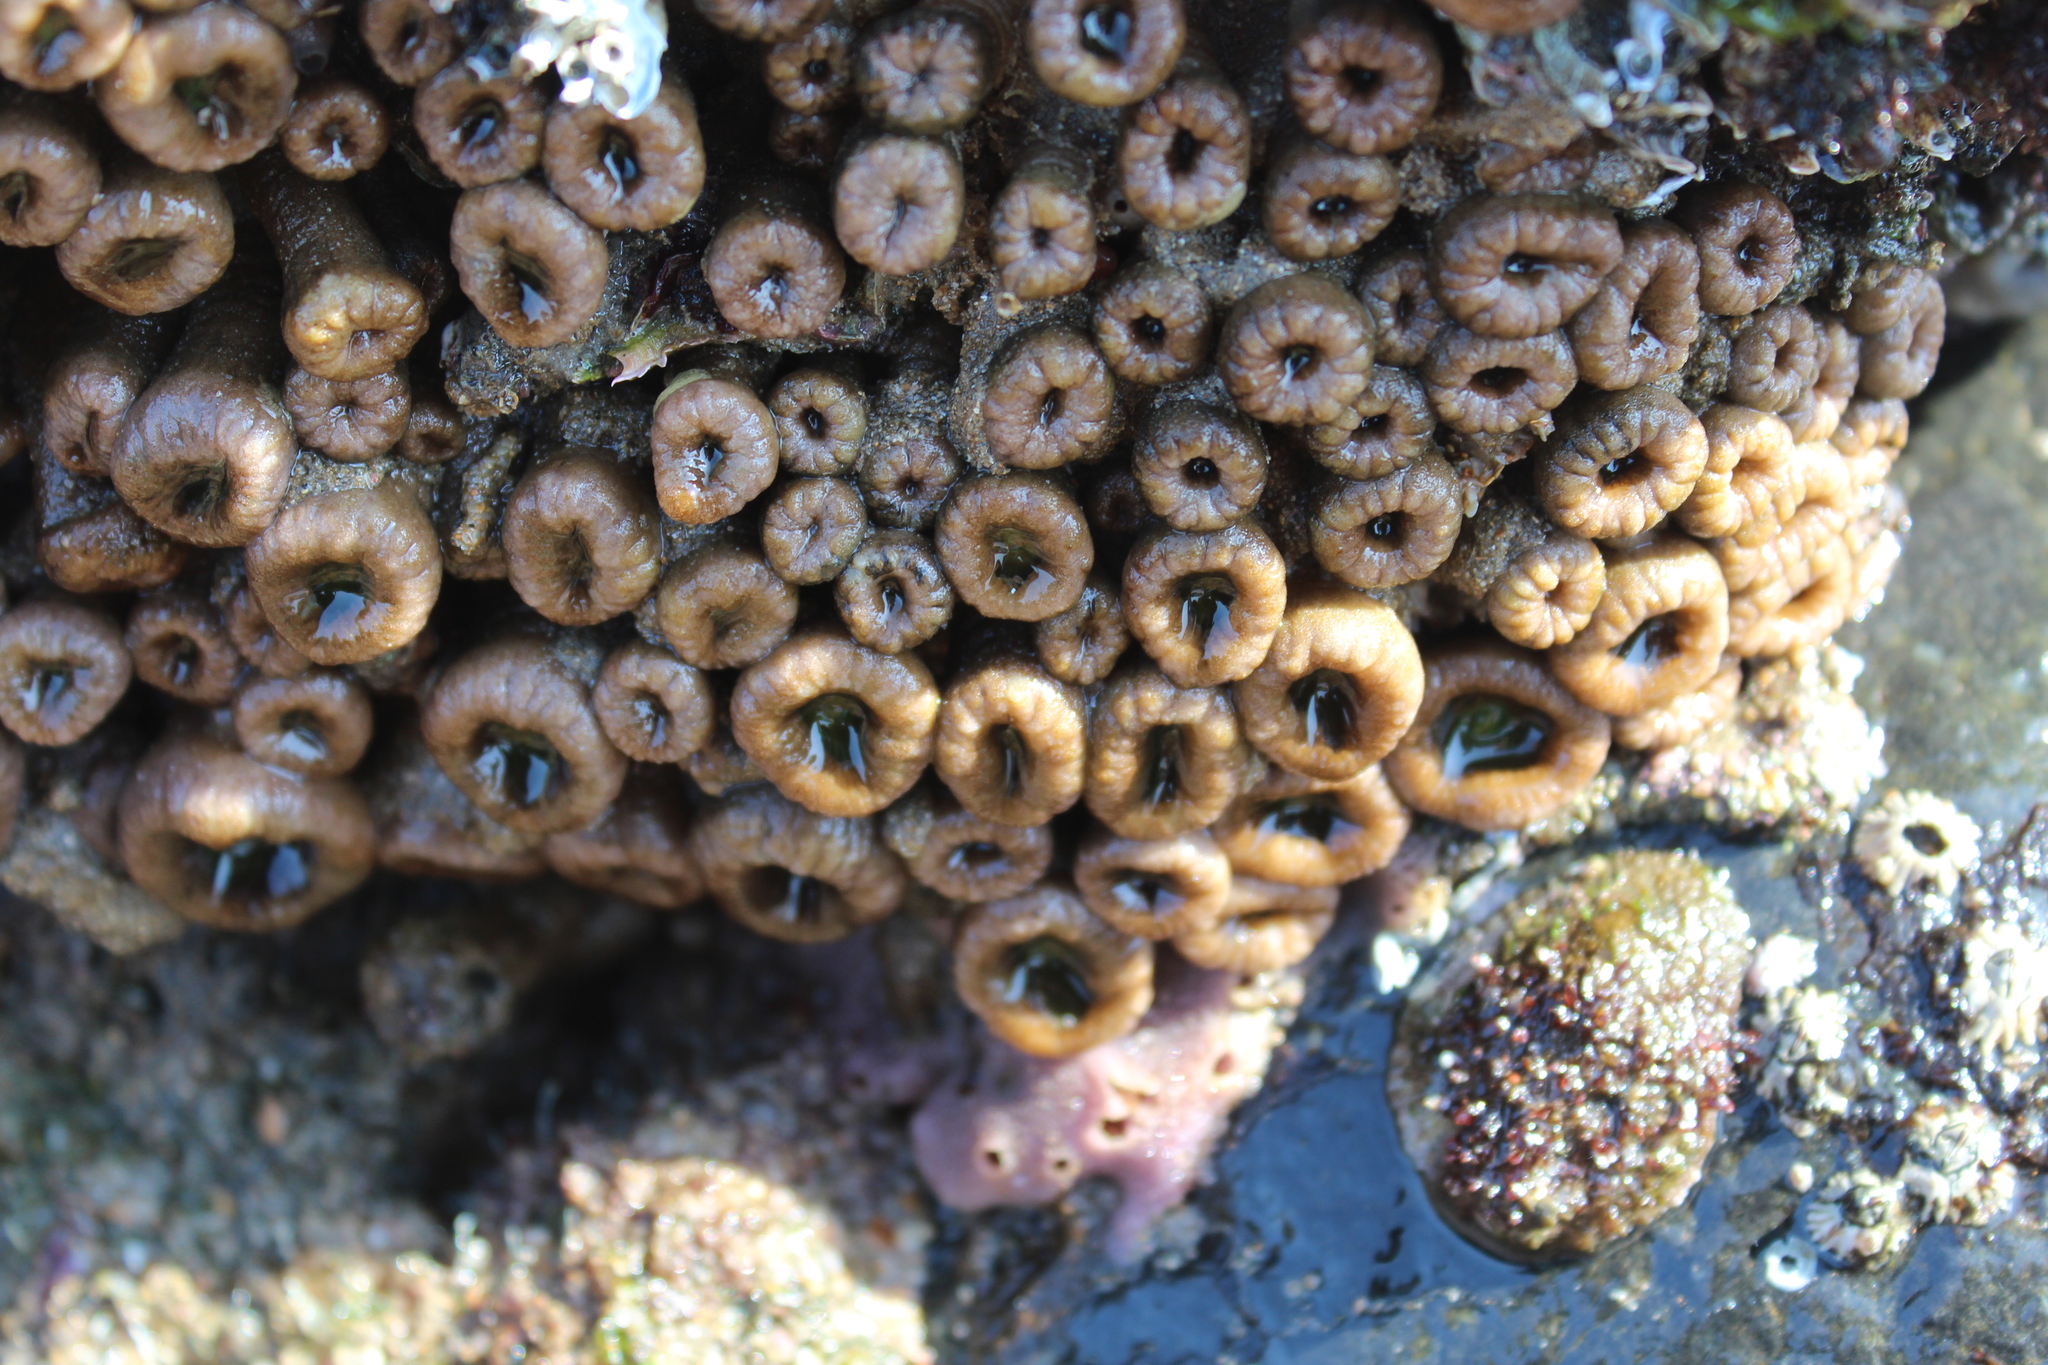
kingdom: Animalia
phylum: Cnidaria
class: Anthozoa
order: Zoantharia
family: Sphenopidae
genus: Palythoa
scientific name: Palythoa mutuki
